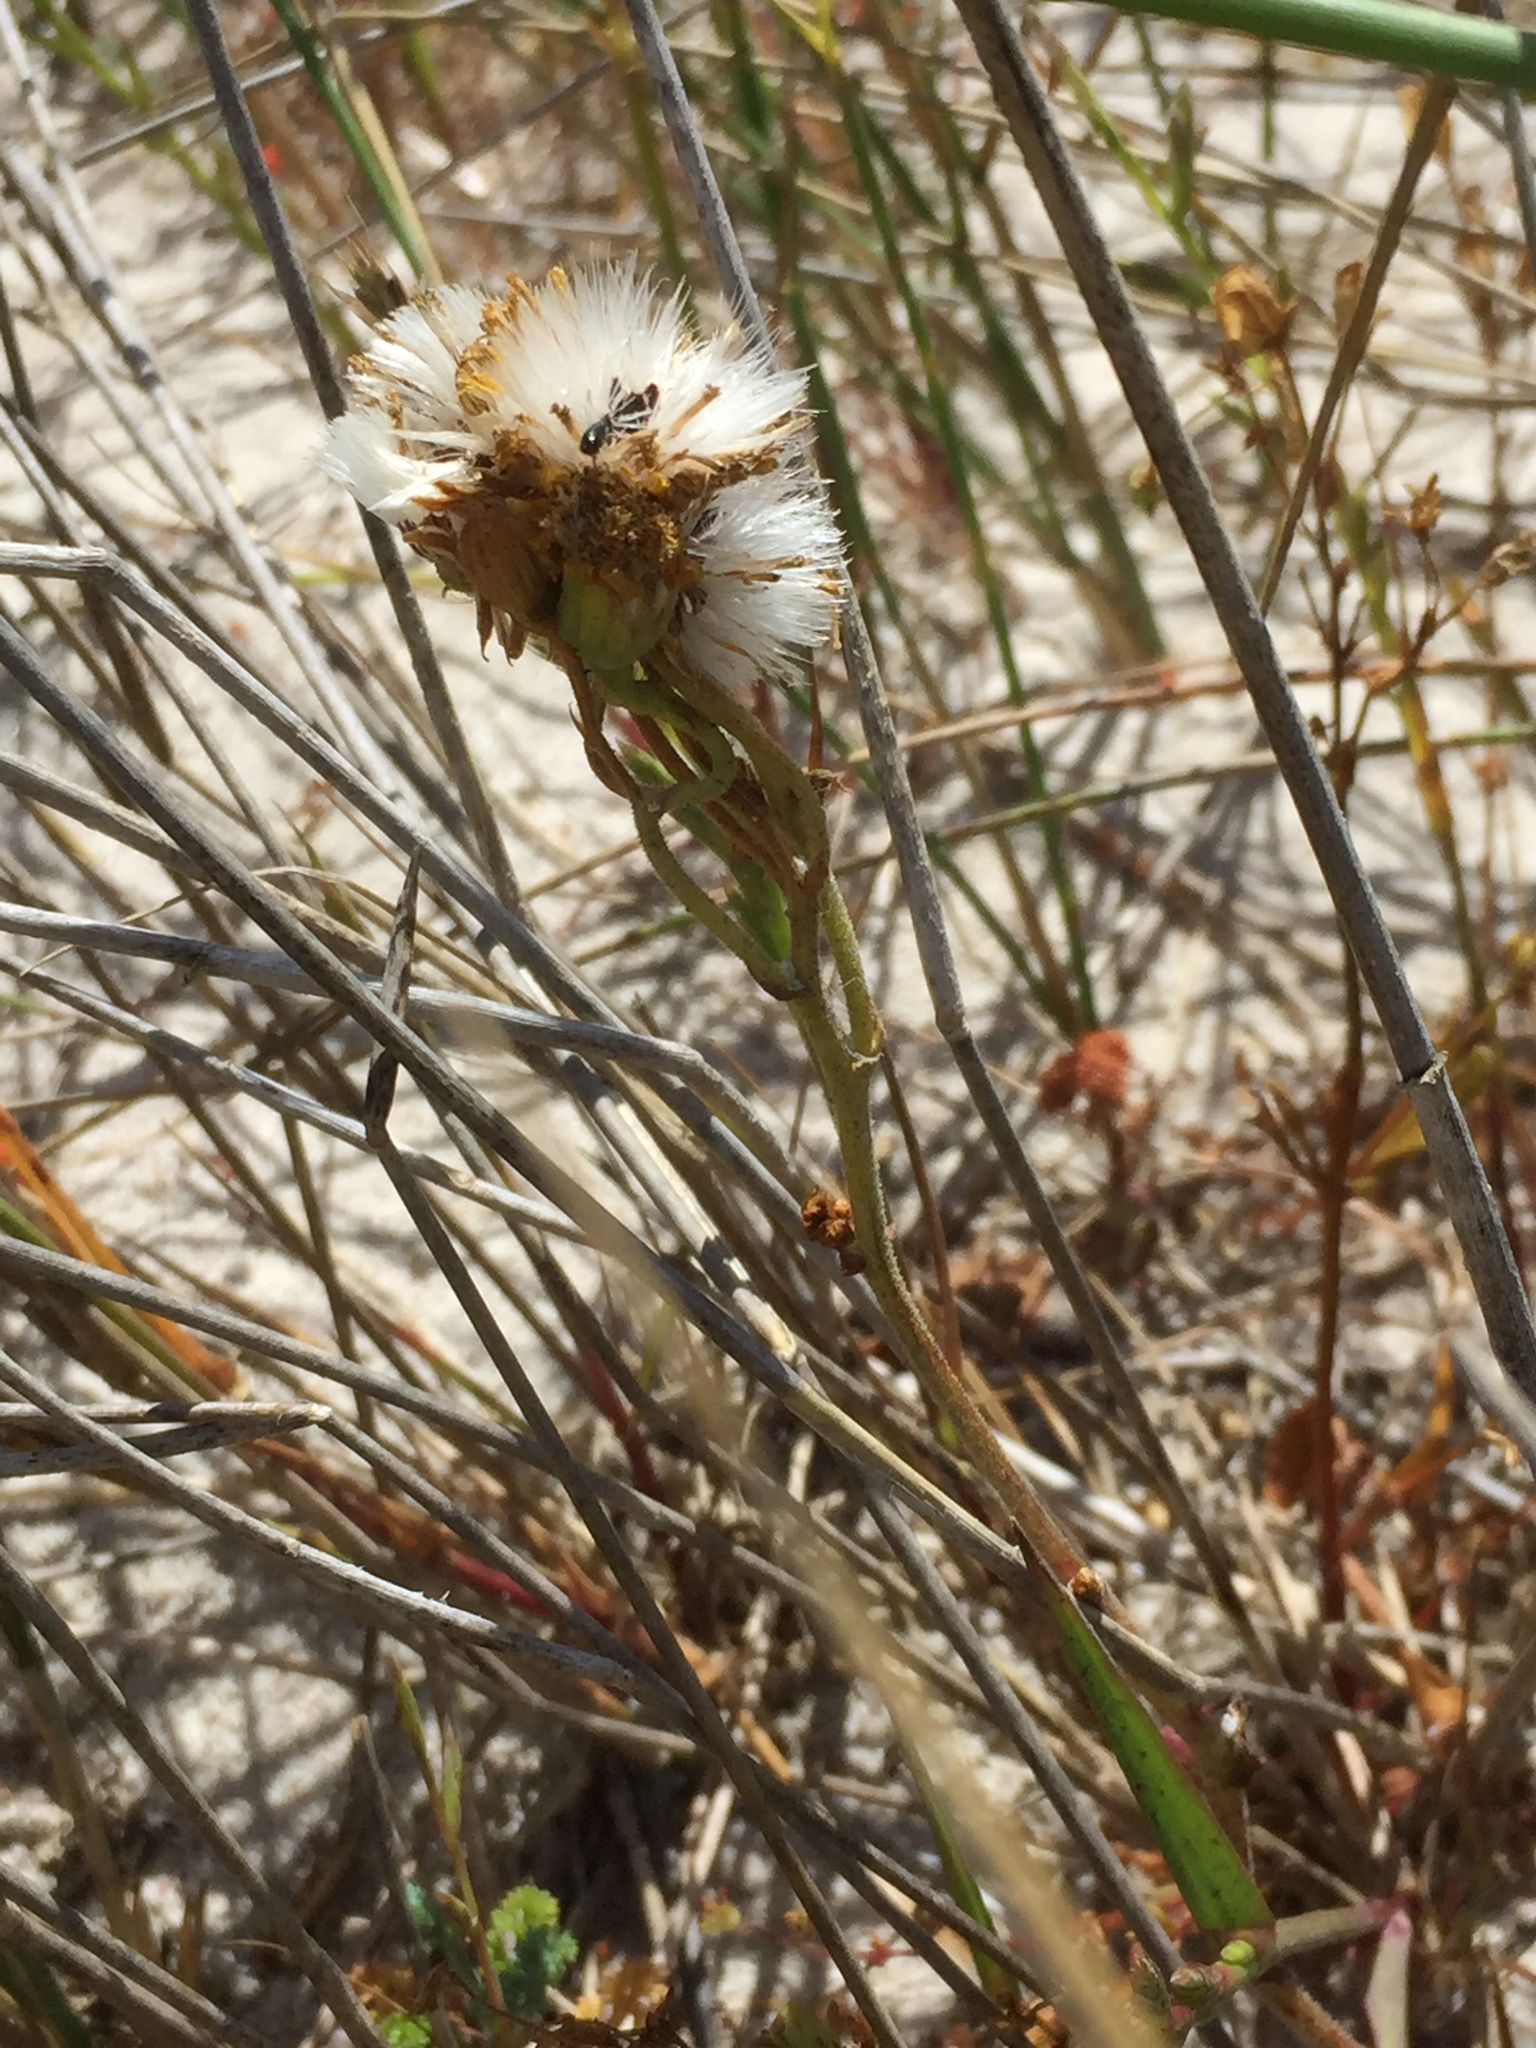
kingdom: Plantae
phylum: Tracheophyta
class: Magnoliopsida
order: Asterales
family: Asteraceae
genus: Cineraria
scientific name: Cineraria geifolia
